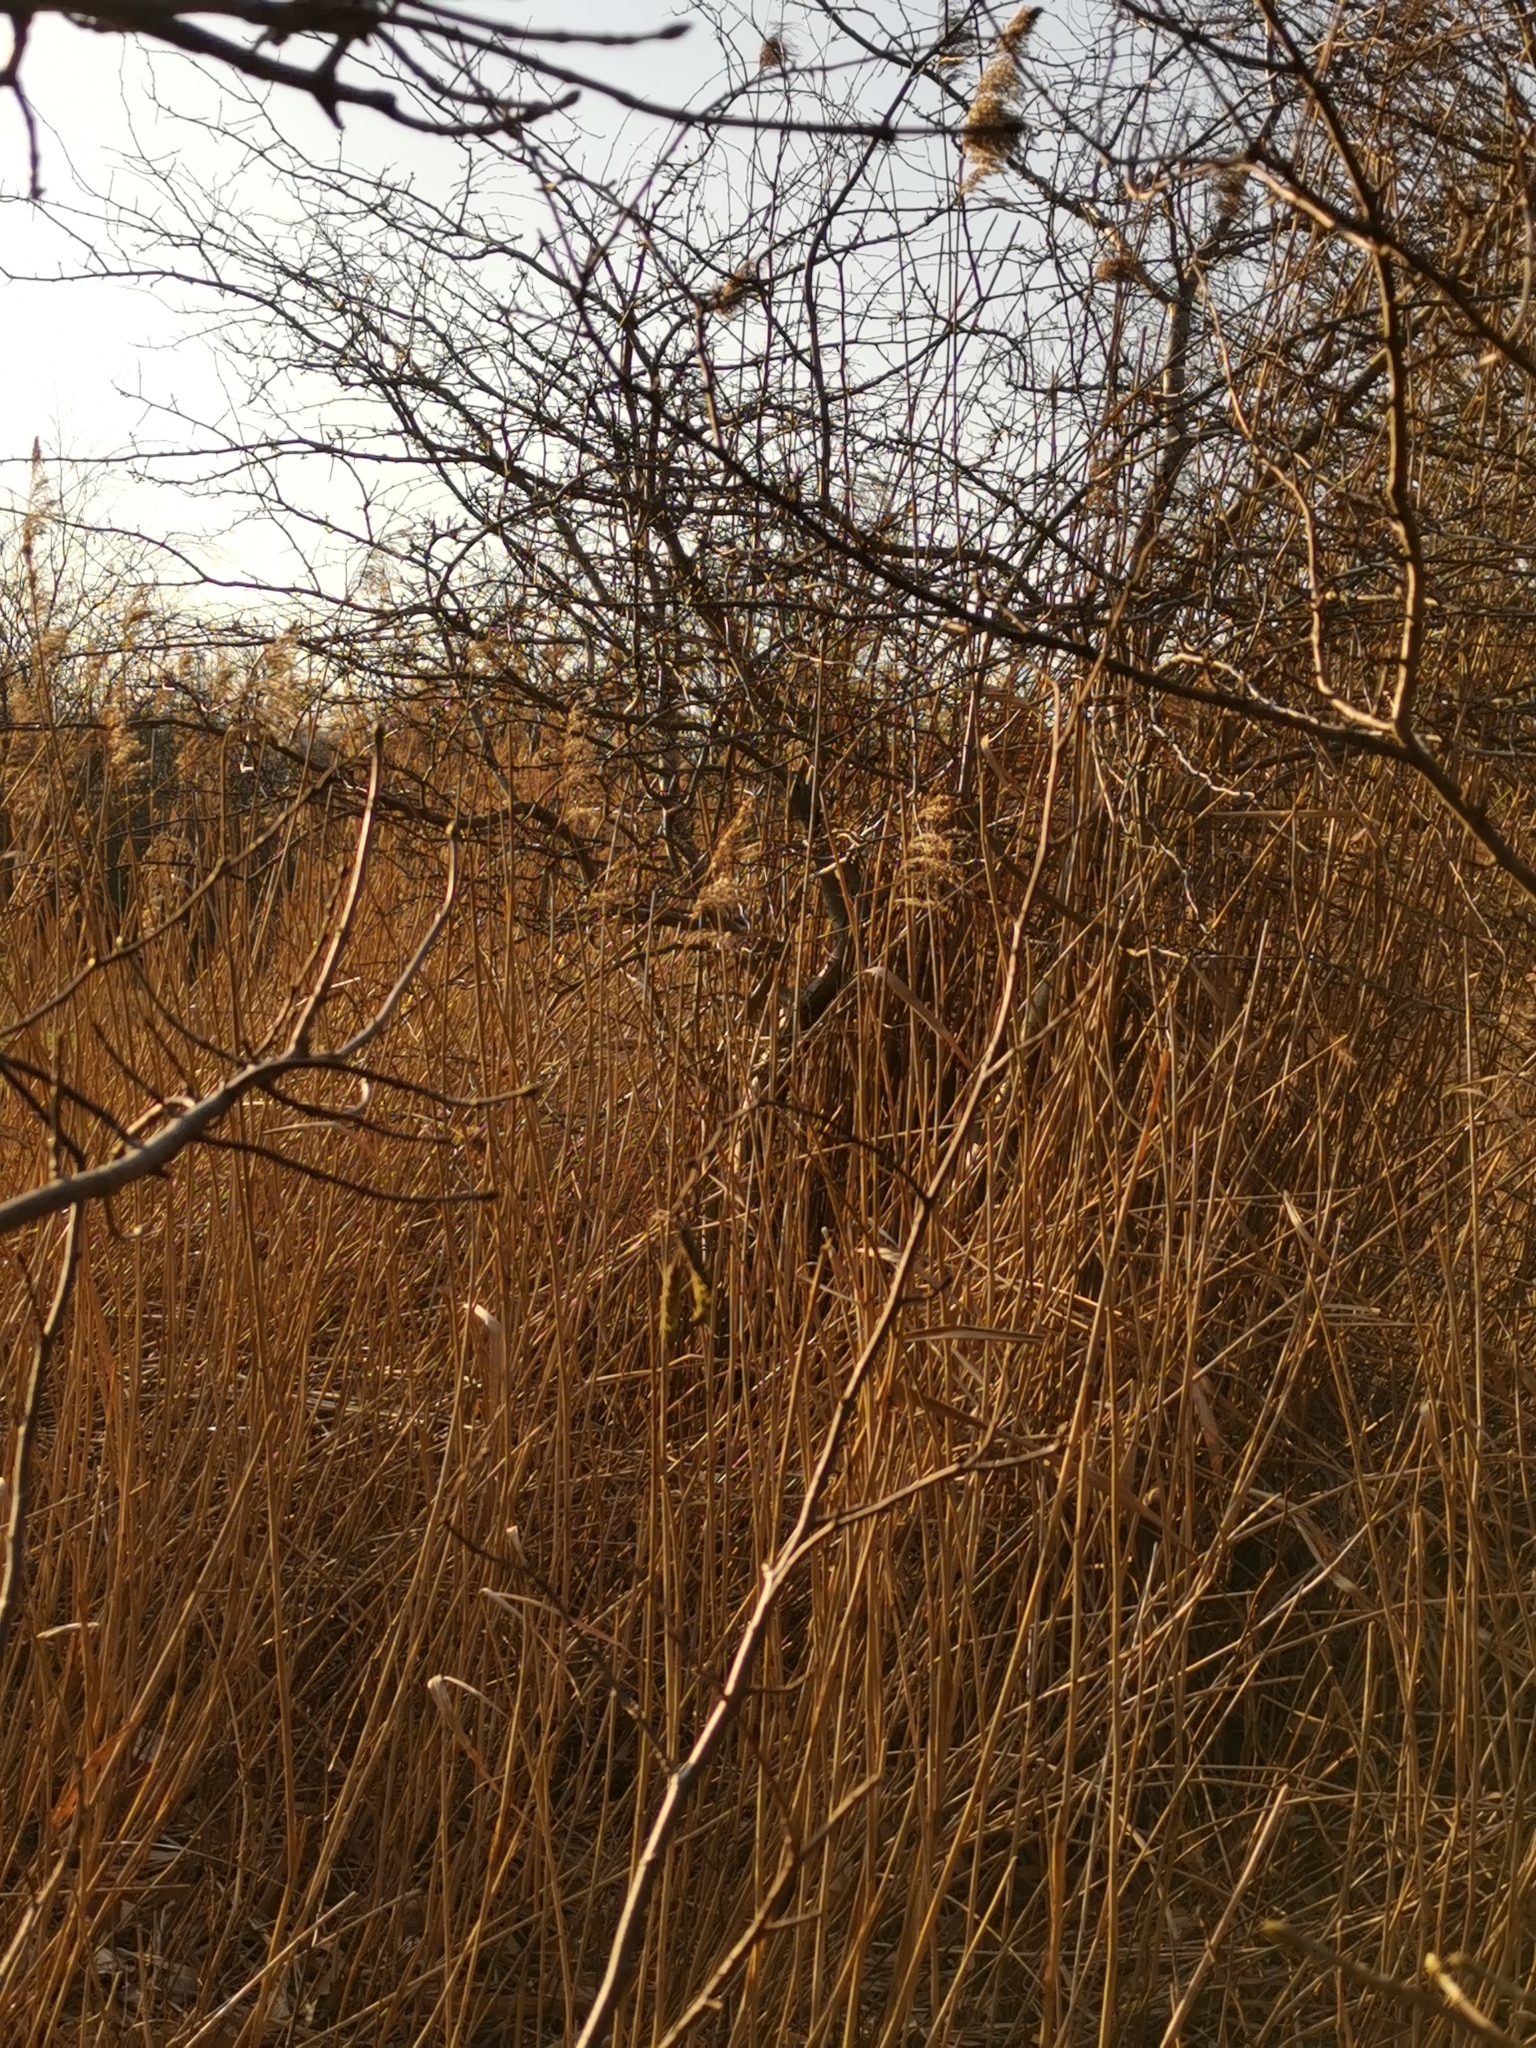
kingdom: Plantae
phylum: Tracheophyta
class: Liliopsida
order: Poales
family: Poaceae
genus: Phragmites
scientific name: Phragmites australis
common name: Common reed
